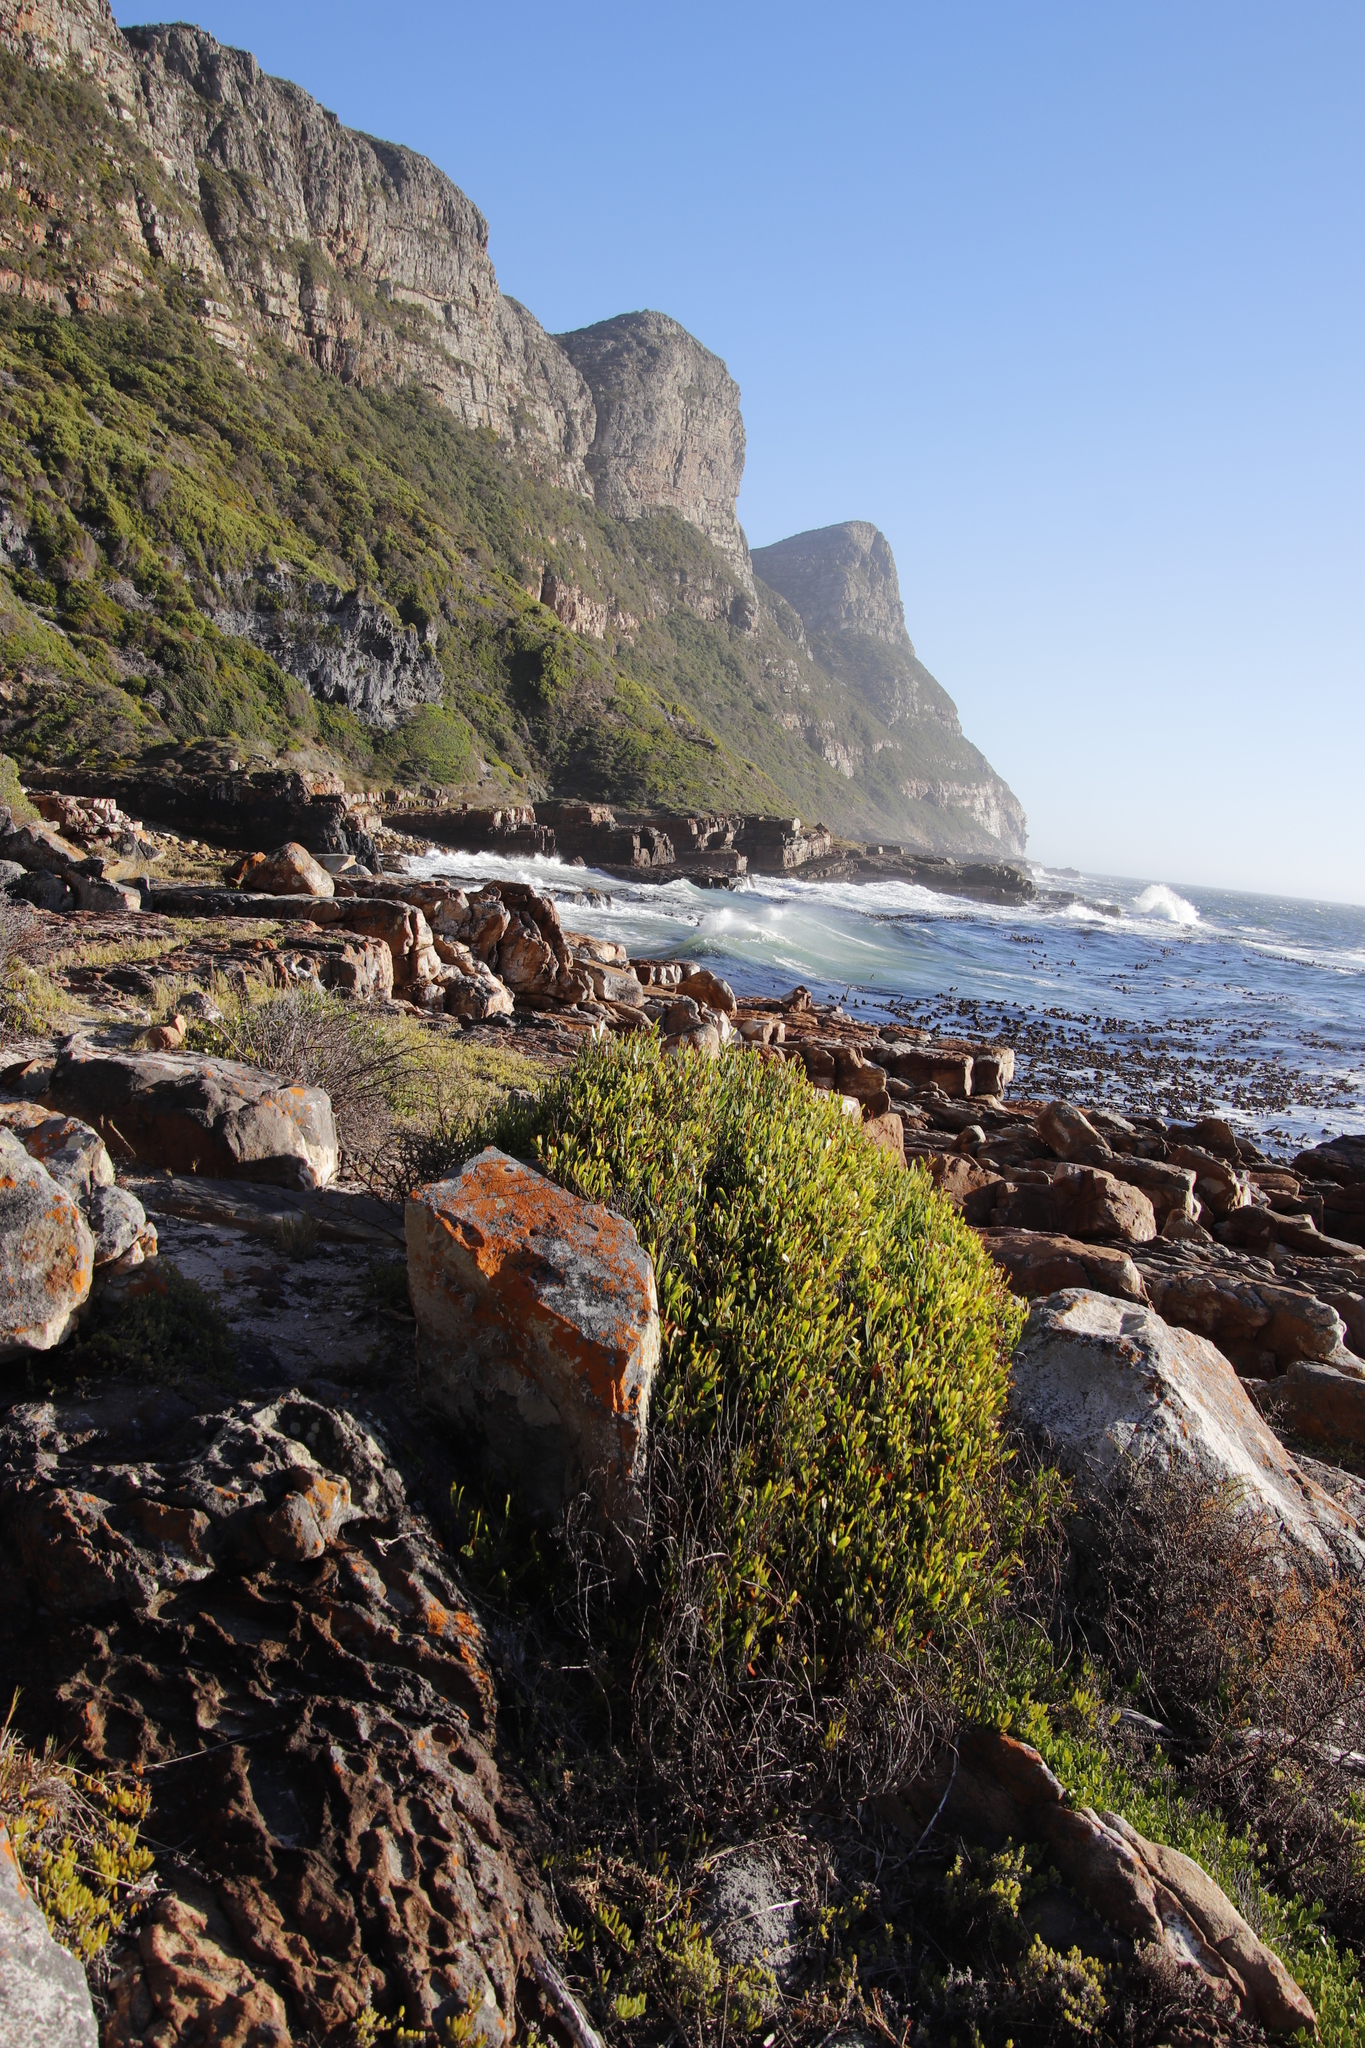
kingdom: Plantae
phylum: Tracheophyta
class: Magnoliopsida
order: Fabales
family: Fabaceae
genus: Acacia
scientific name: Acacia cyclops
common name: Coastal wattle
